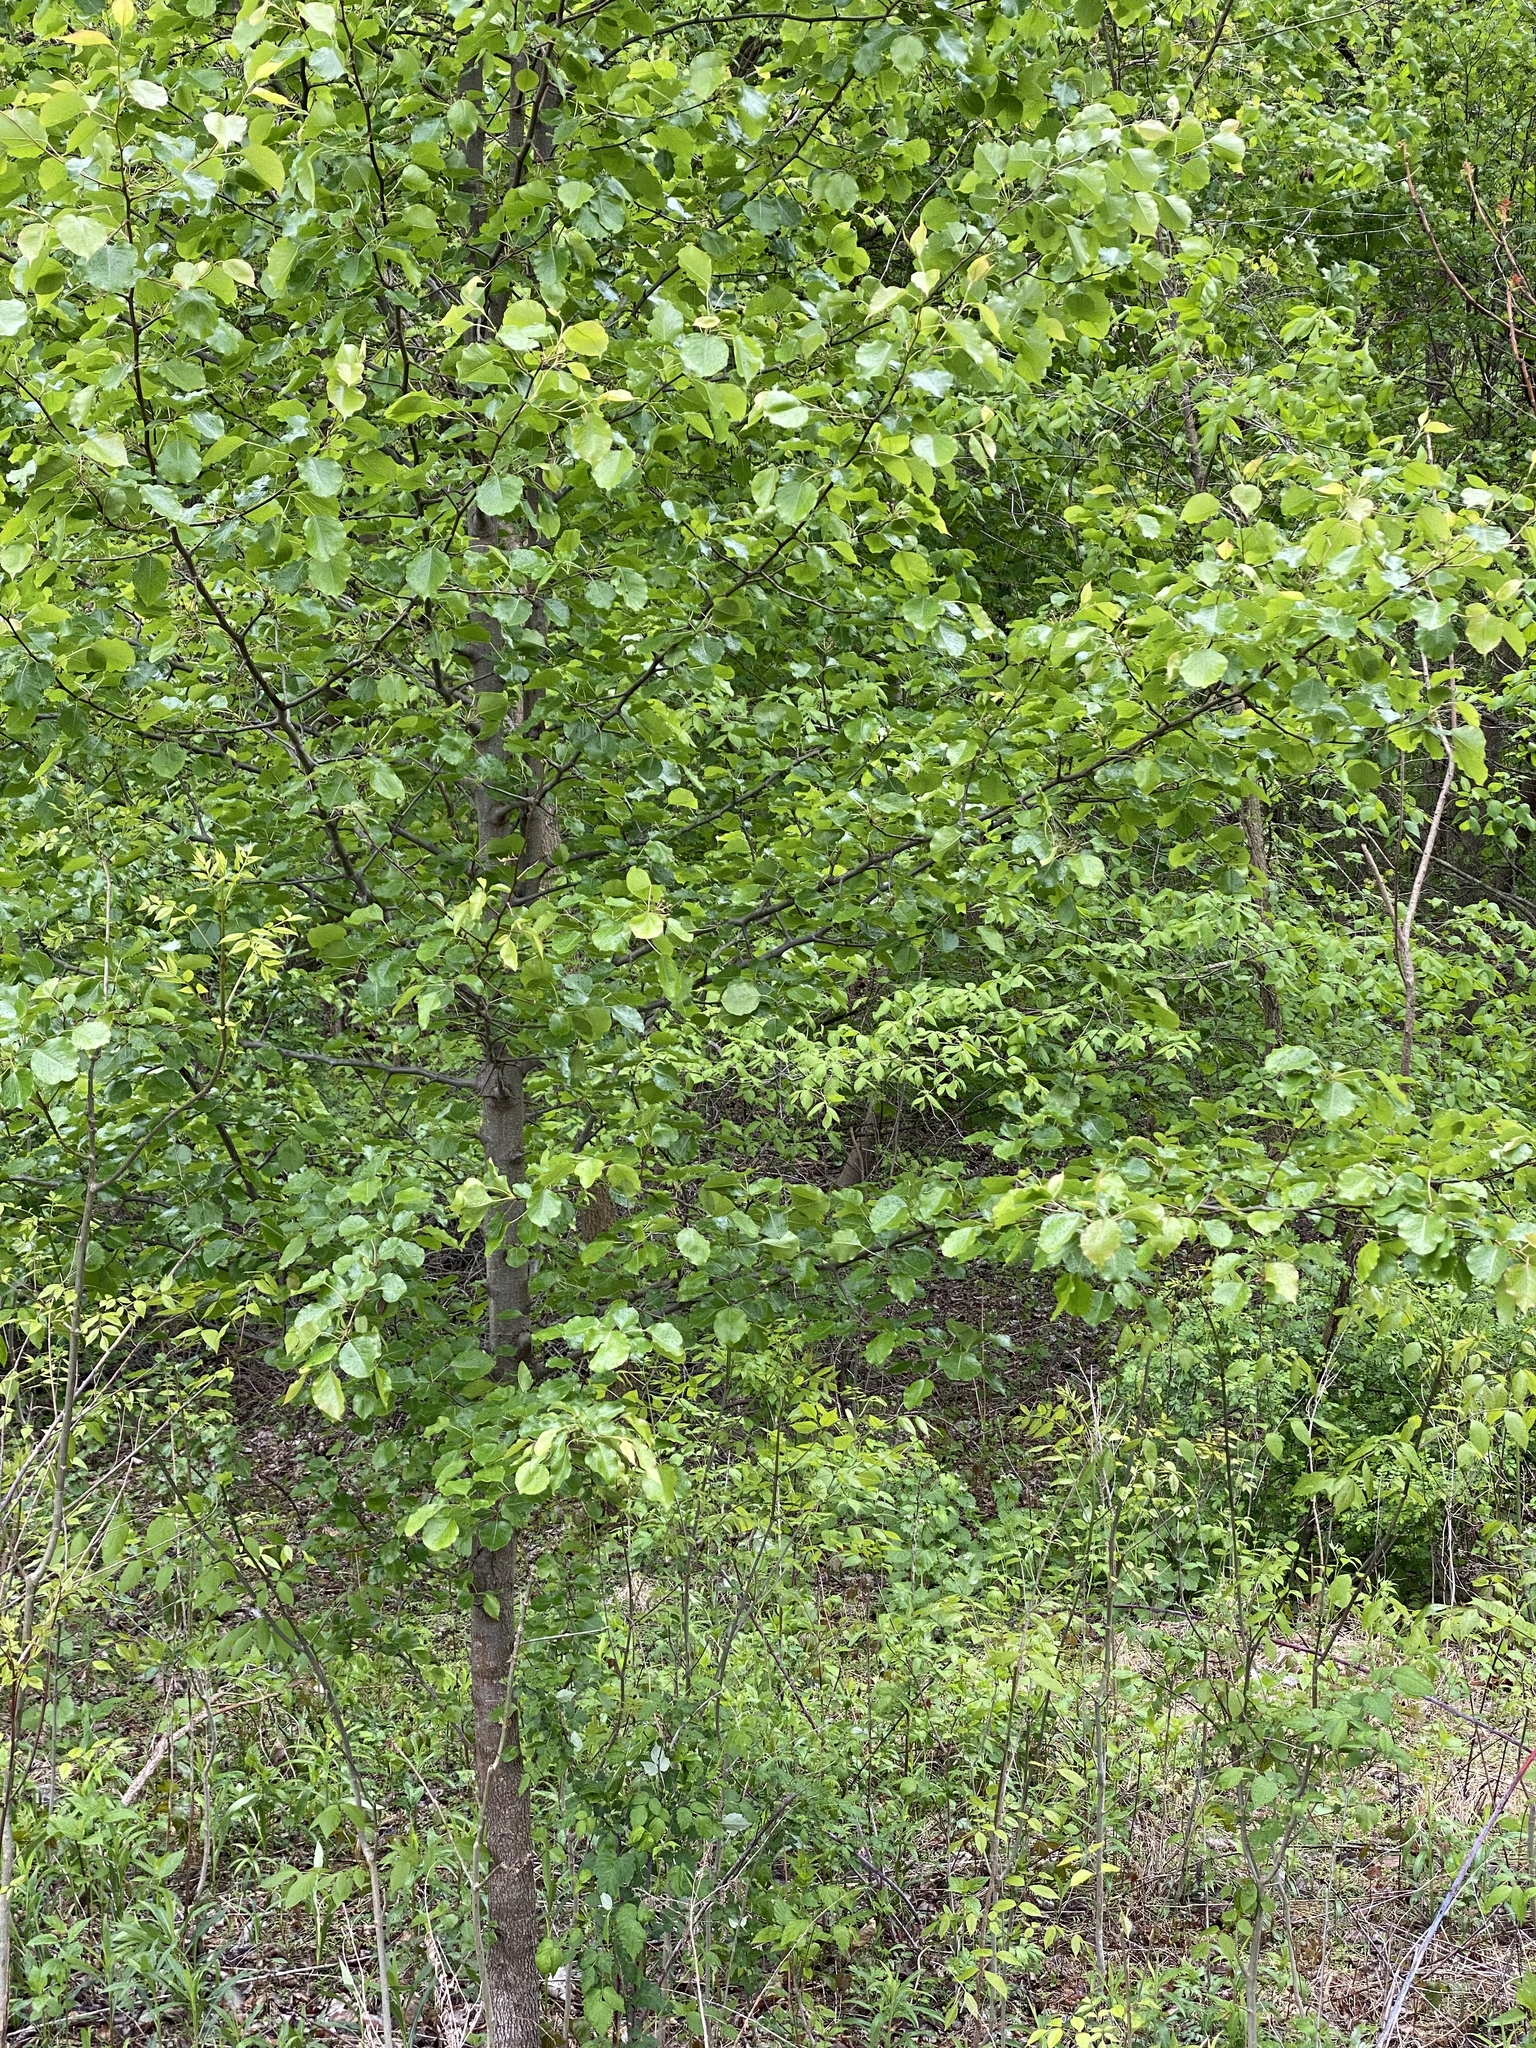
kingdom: Plantae
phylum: Tracheophyta
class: Magnoliopsida
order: Rosales
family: Rosaceae
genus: Pyrus
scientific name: Pyrus calleryana
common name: Callery pear
